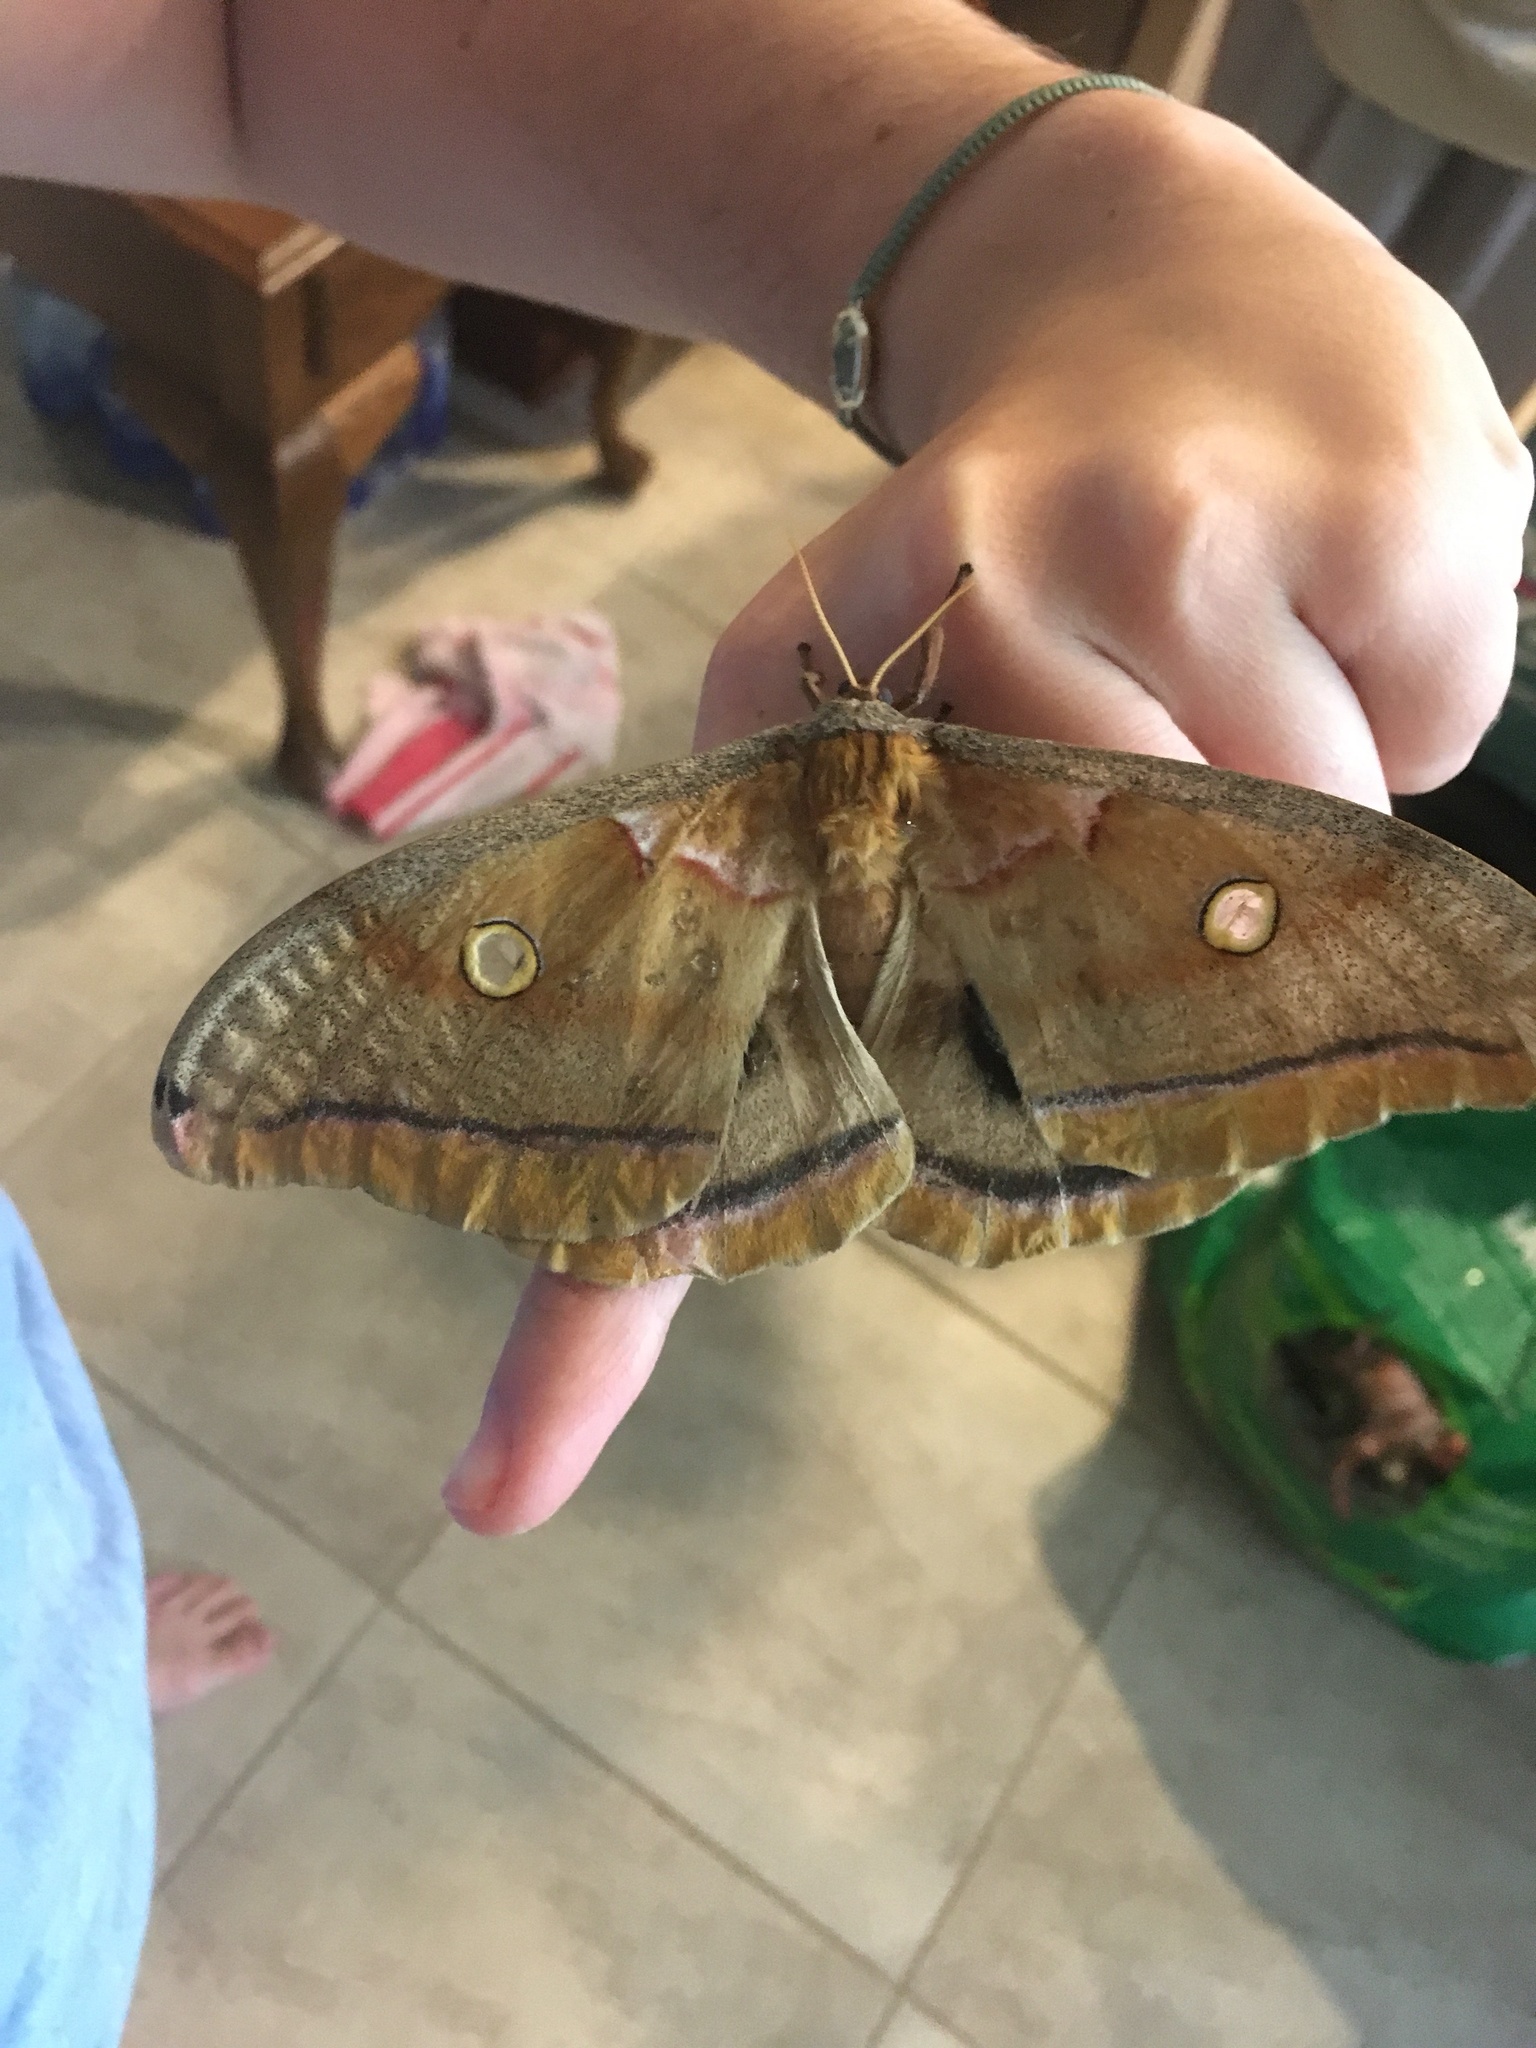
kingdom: Animalia
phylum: Arthropoda
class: Insecta
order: Lepidoptera
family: Saturniidae
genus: Antheraea
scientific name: Antheraea polyphemus
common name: Polyphemus moth
